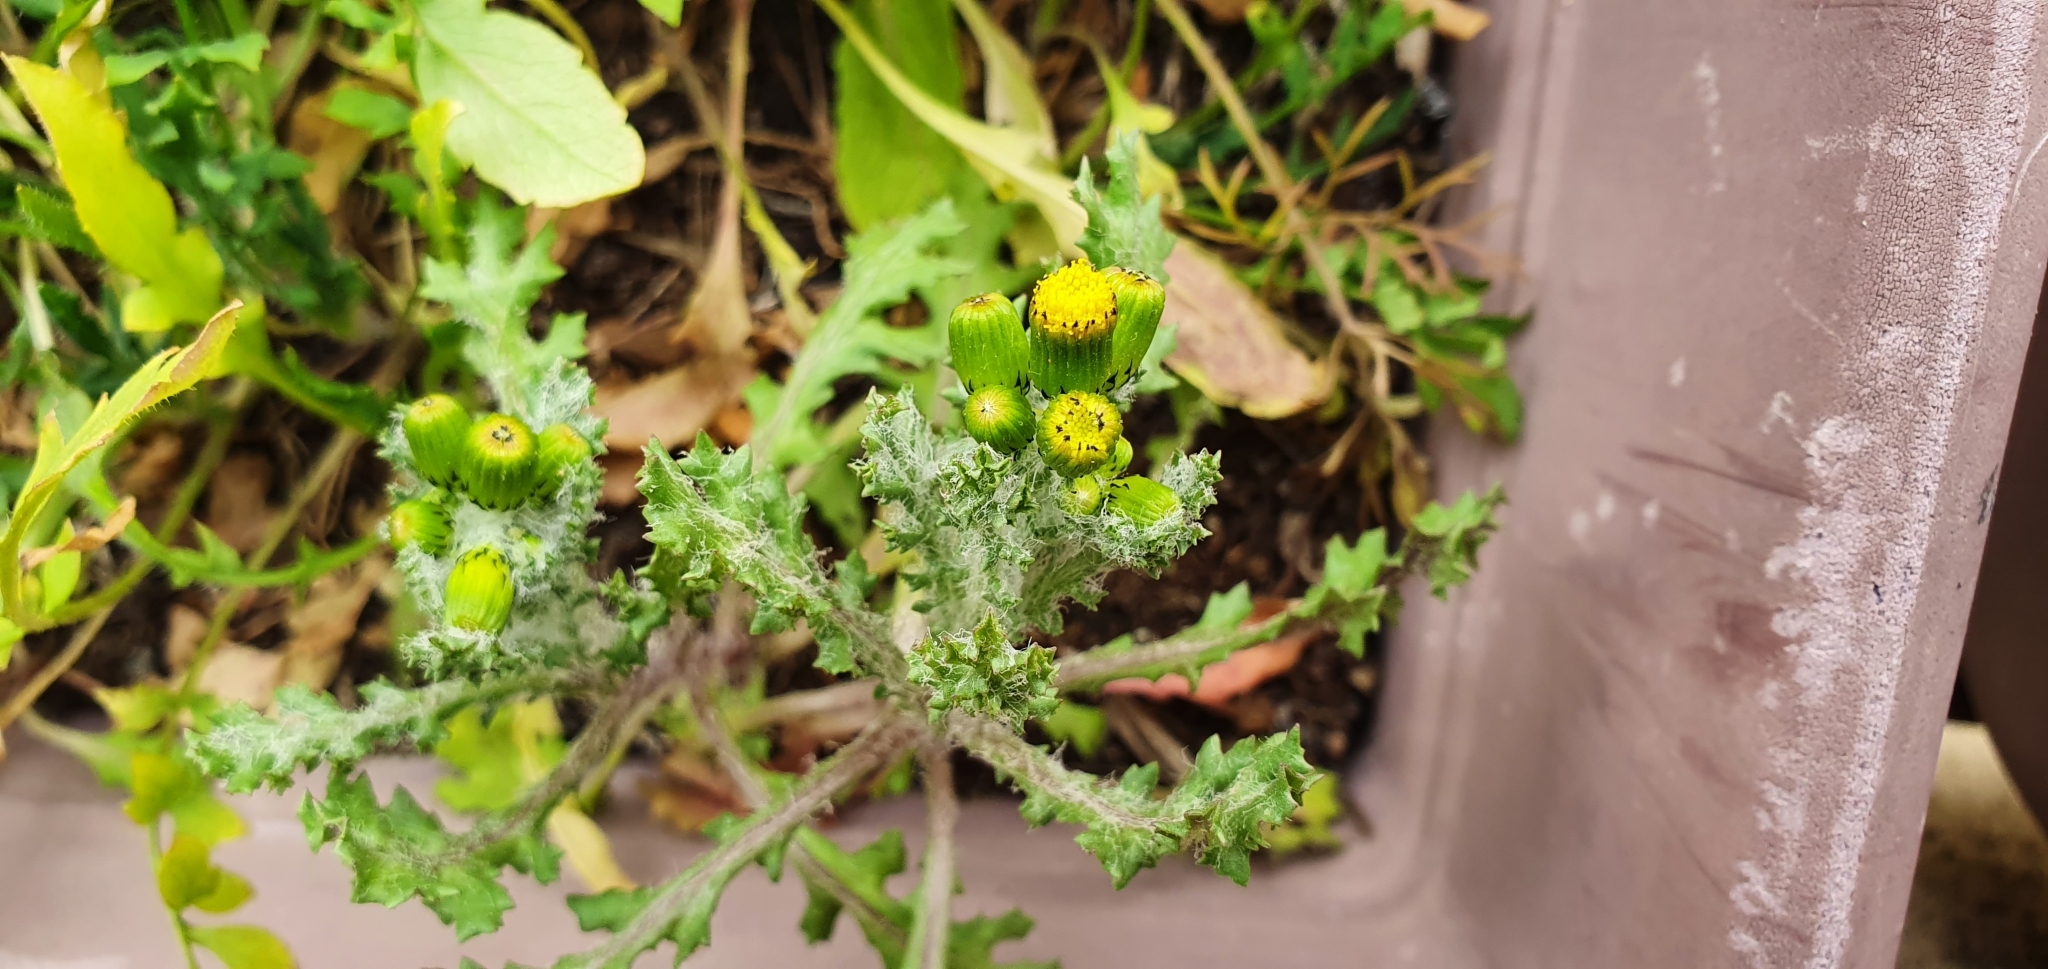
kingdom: Plantae
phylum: Tracheophyta
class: Magnoliopsida
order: Asterales
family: Asteraceae
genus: Senecio
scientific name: Senecio vulgaris
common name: Old-man-in-the-spring
